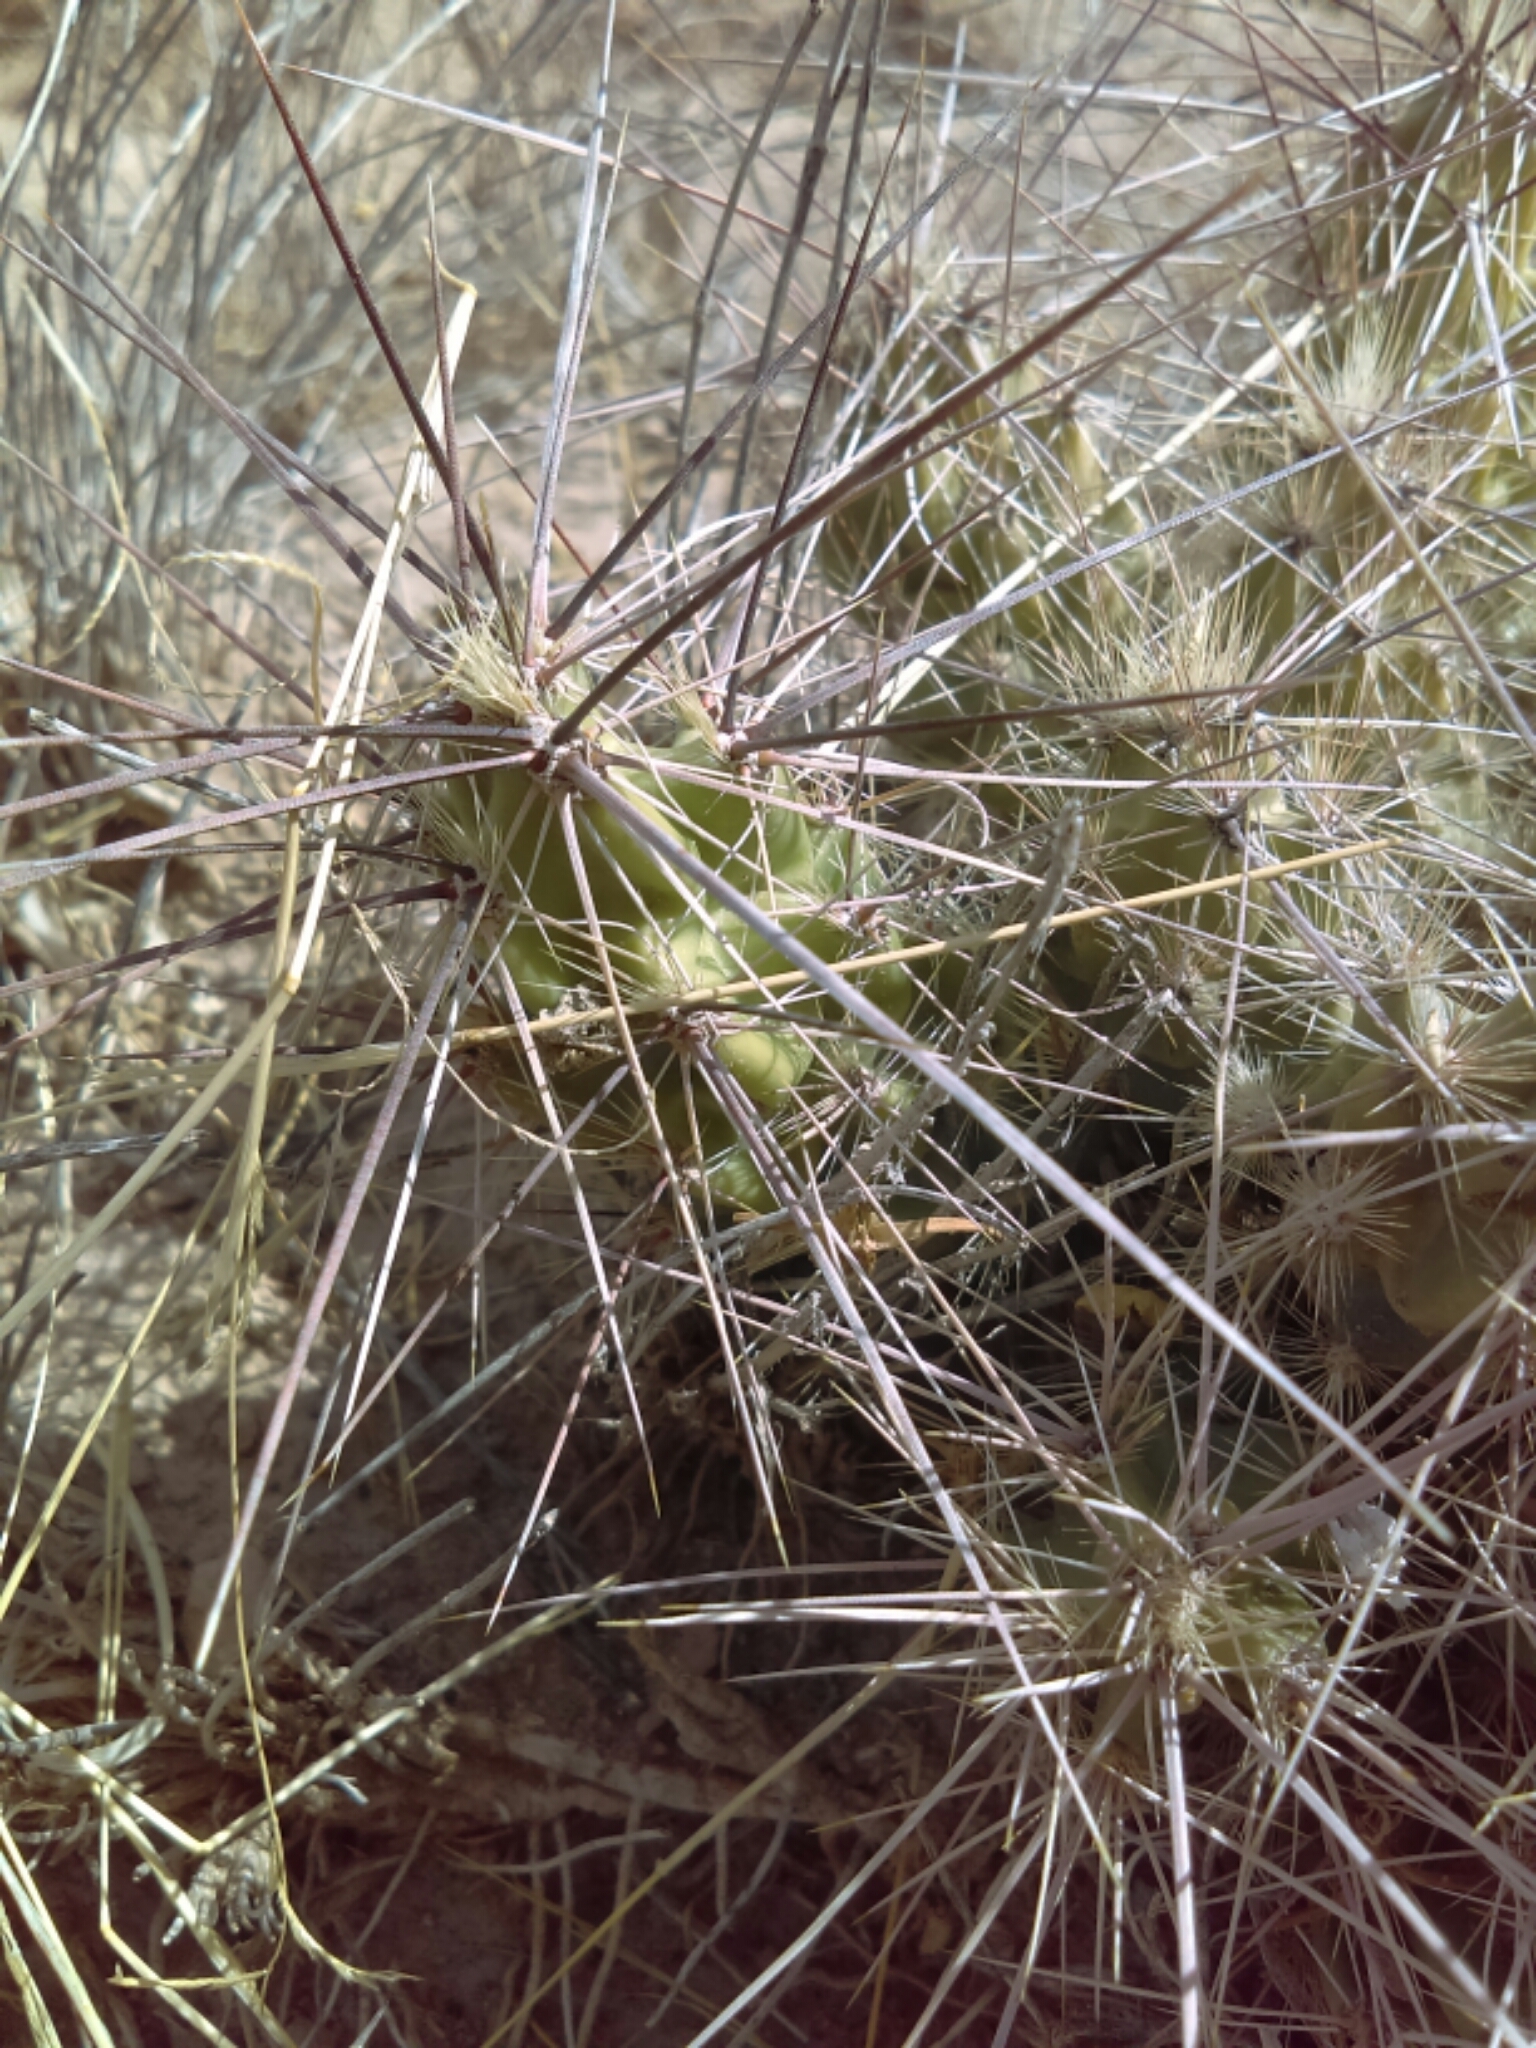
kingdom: Plantae
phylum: Tracheophyta
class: Magnoliopsida
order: Caryophyllales
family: Cactaceae
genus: Grusonia
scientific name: Grusonia schottii
